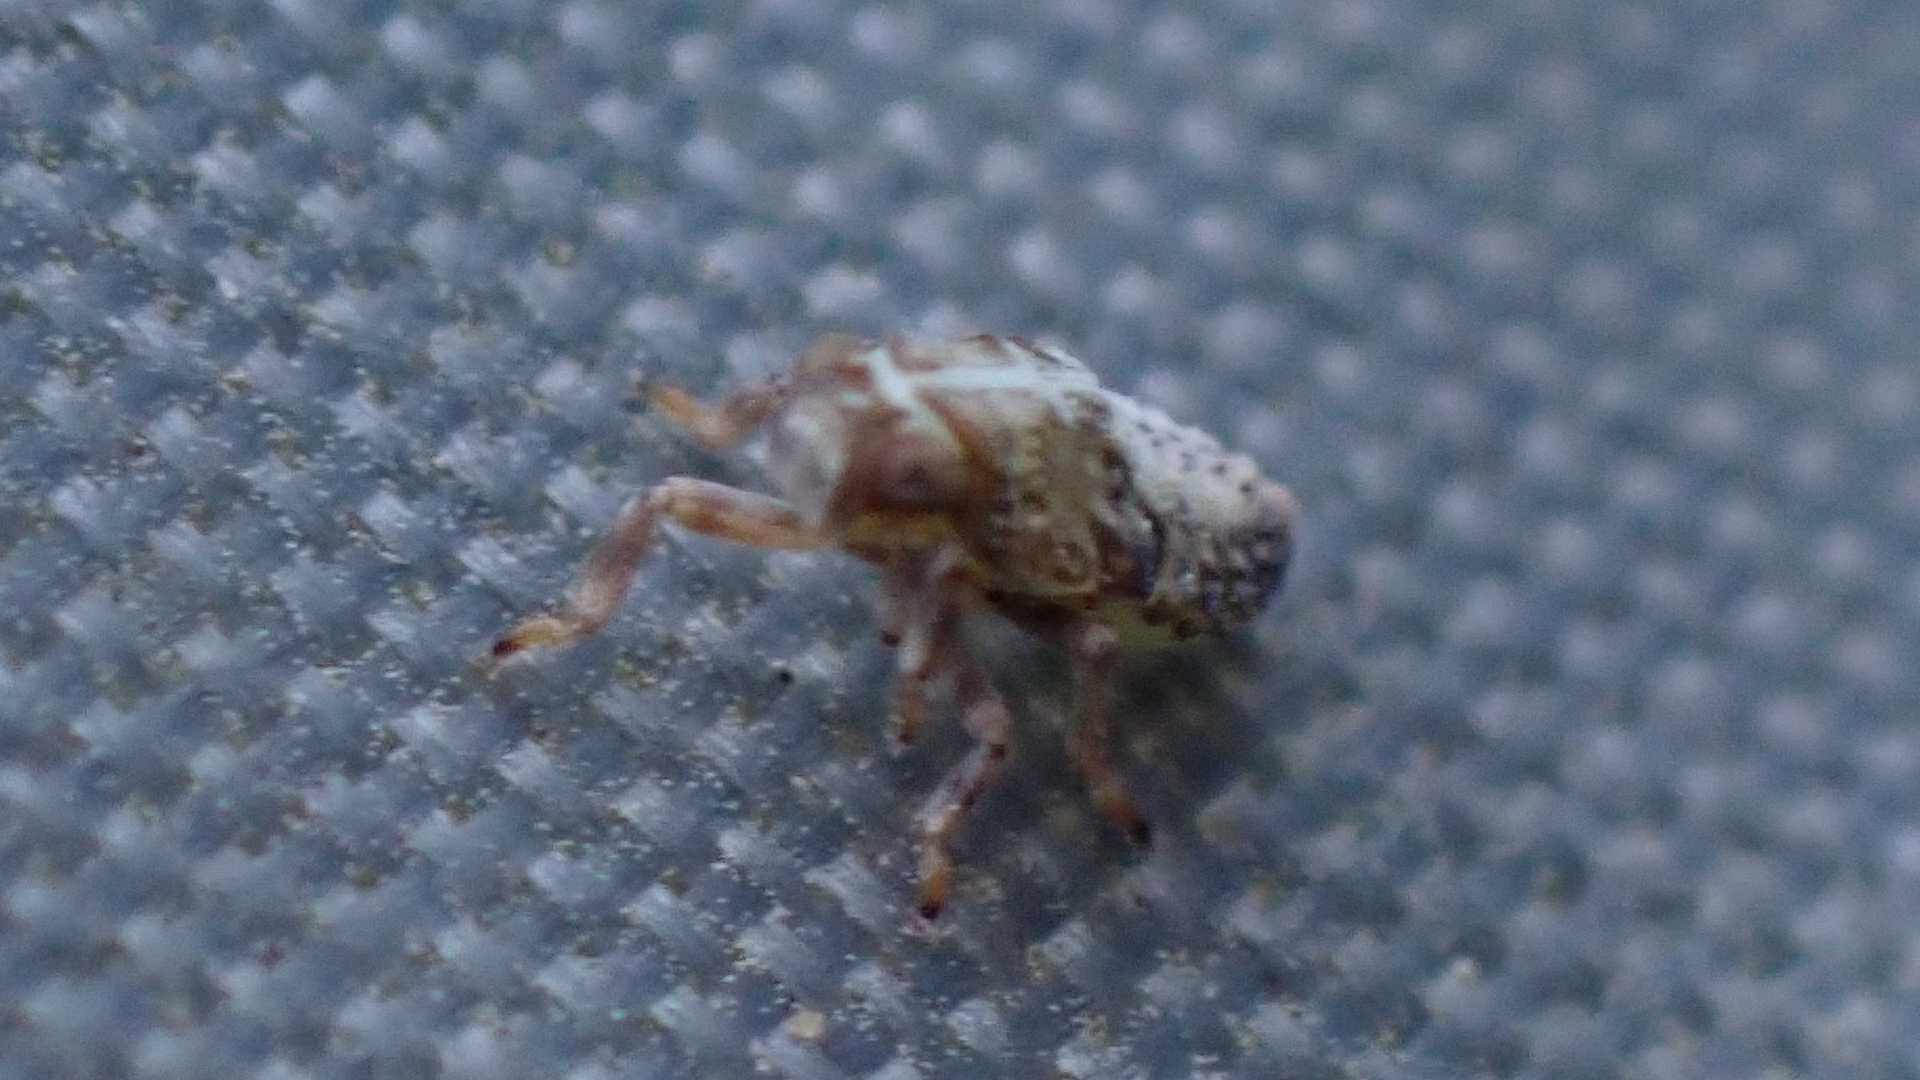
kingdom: Animalia
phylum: Arthropoda
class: Insecta
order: Hemiptera
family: Issidae
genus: Issus
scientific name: Issus coleoptratus
